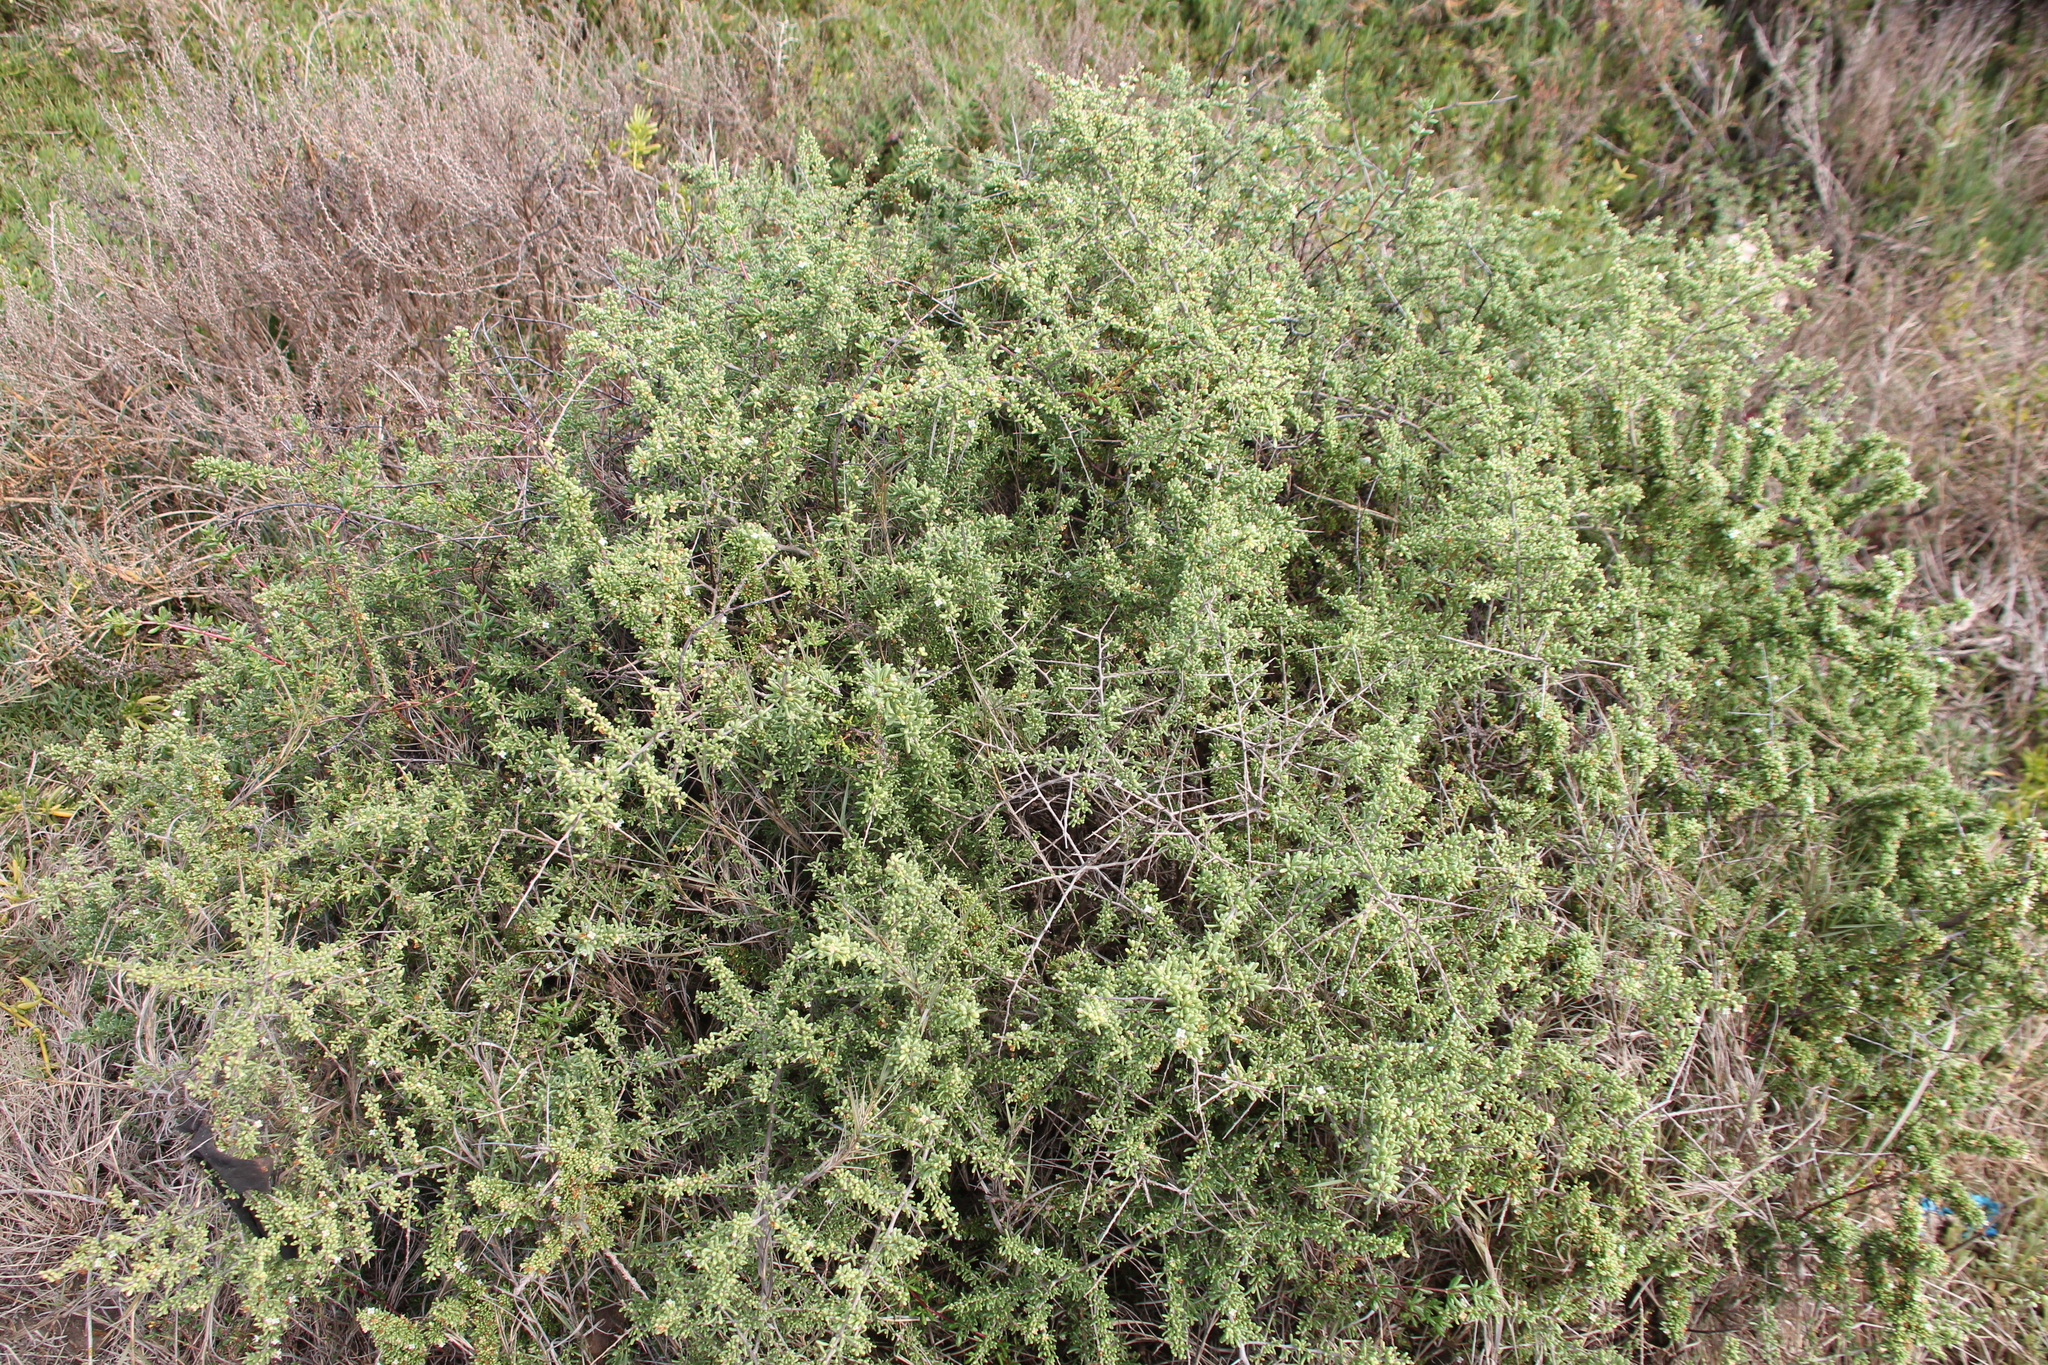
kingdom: Plantae
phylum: Tracheophyta
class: Magnoliopsida
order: Solanales
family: Solanaceae
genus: Lycium
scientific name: Lycium californicum
